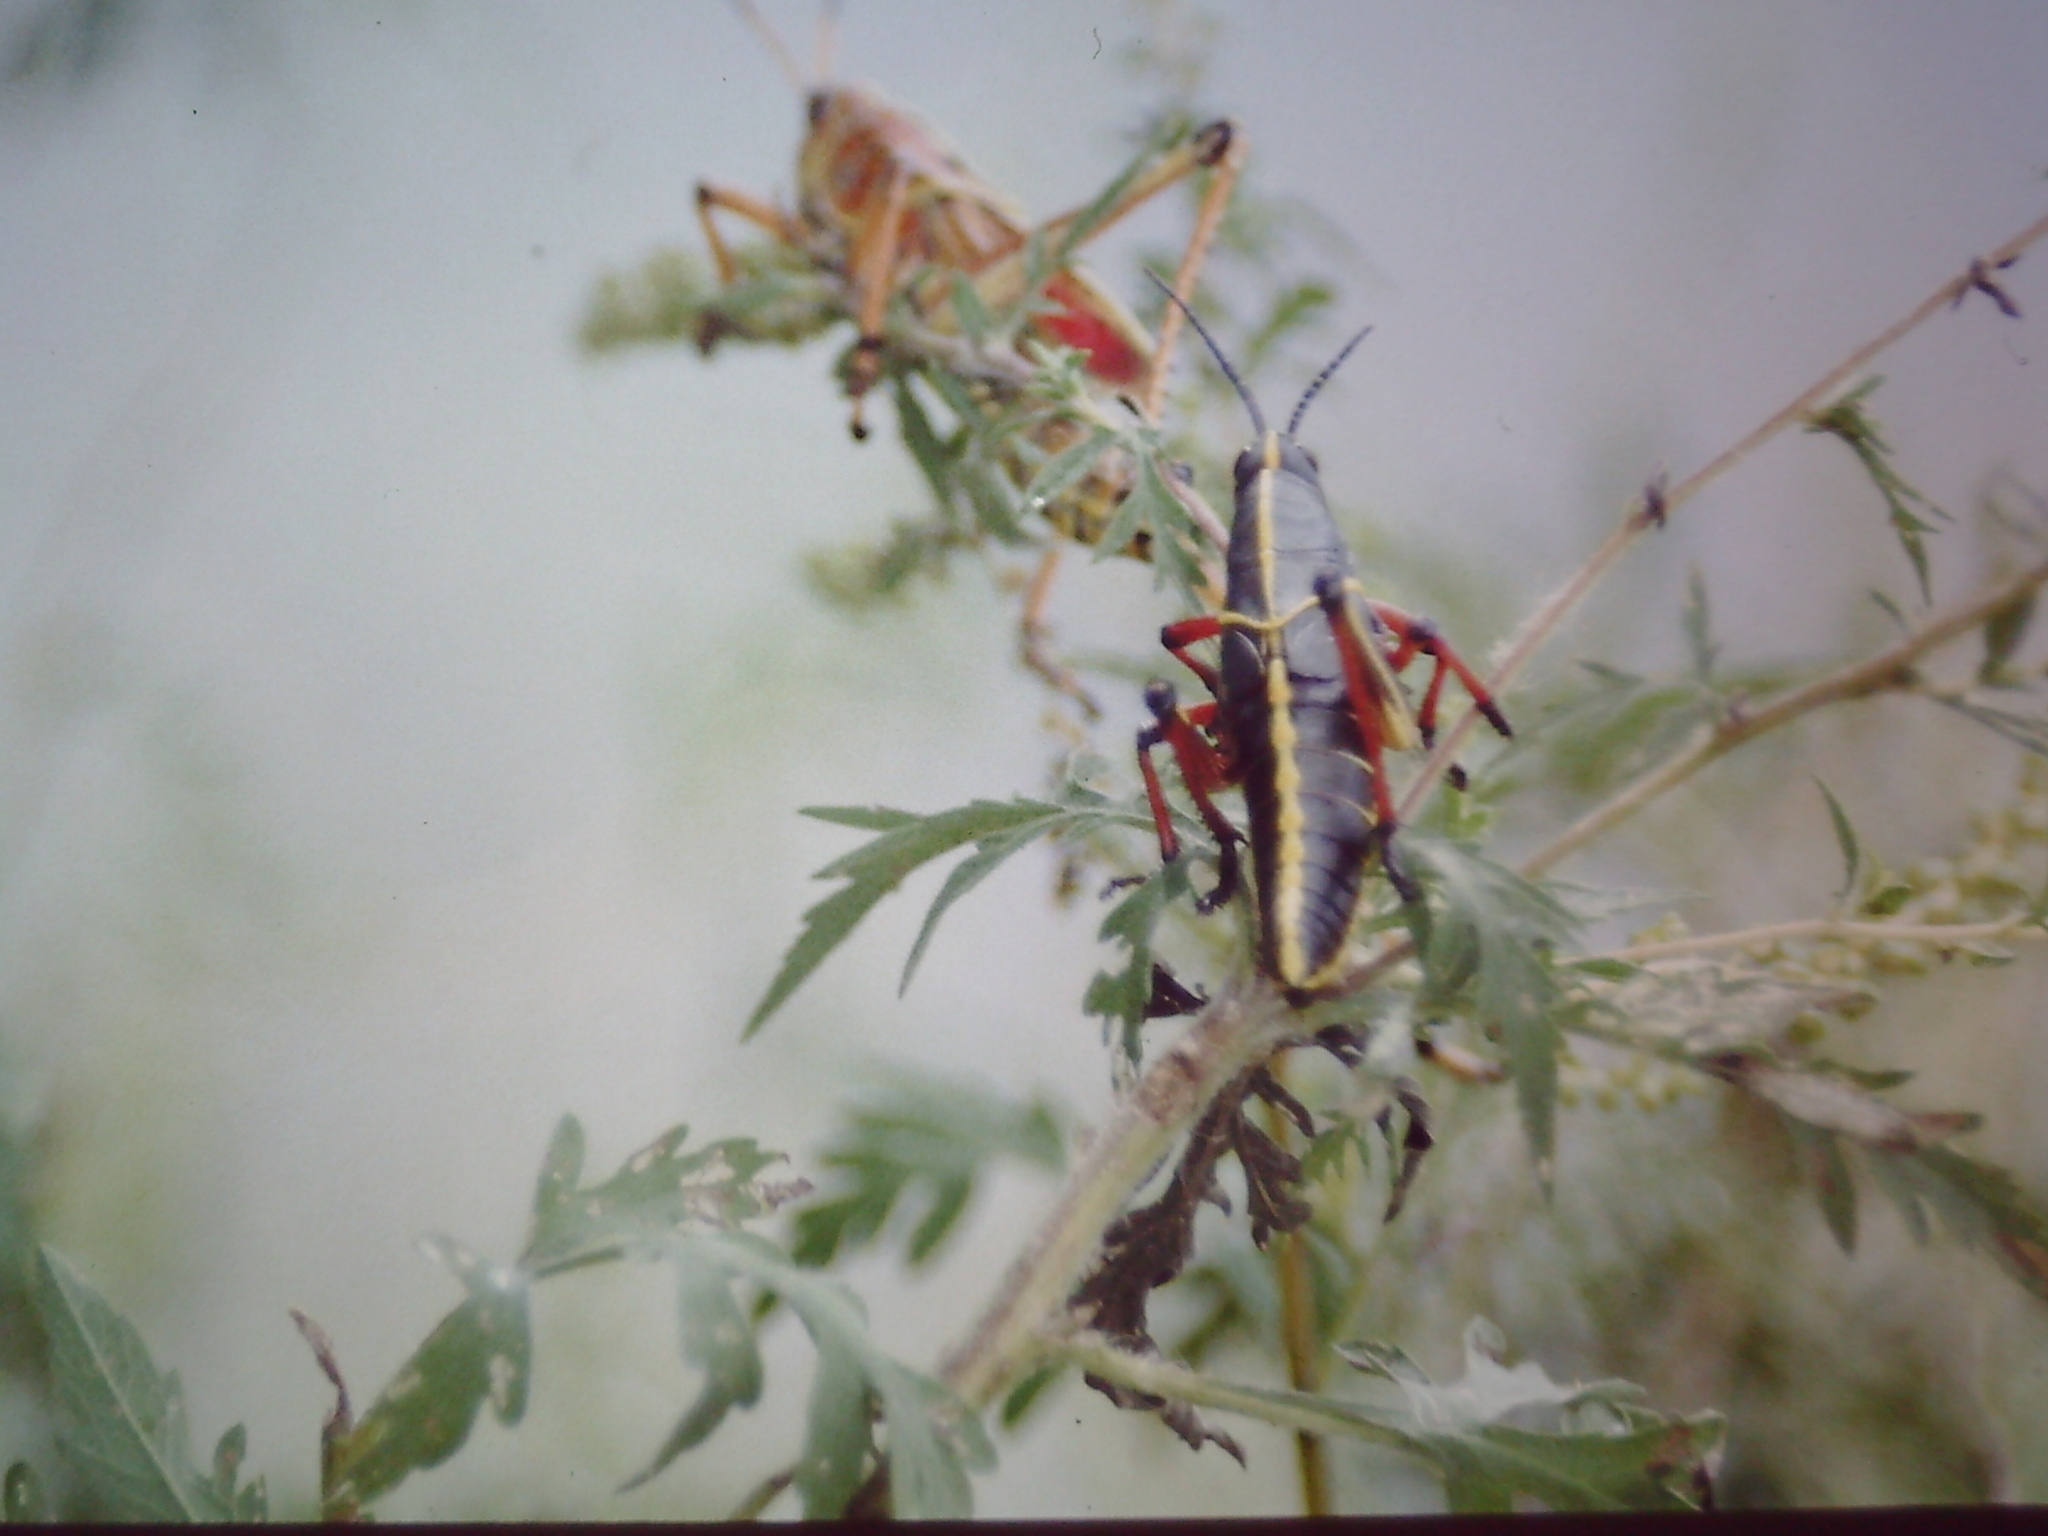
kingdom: Animalia
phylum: Arthropoda
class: Insecta
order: Orthoptera
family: Romaleidae
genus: Romalea
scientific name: Romalea microptera
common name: Eastern lubber grasshopper
